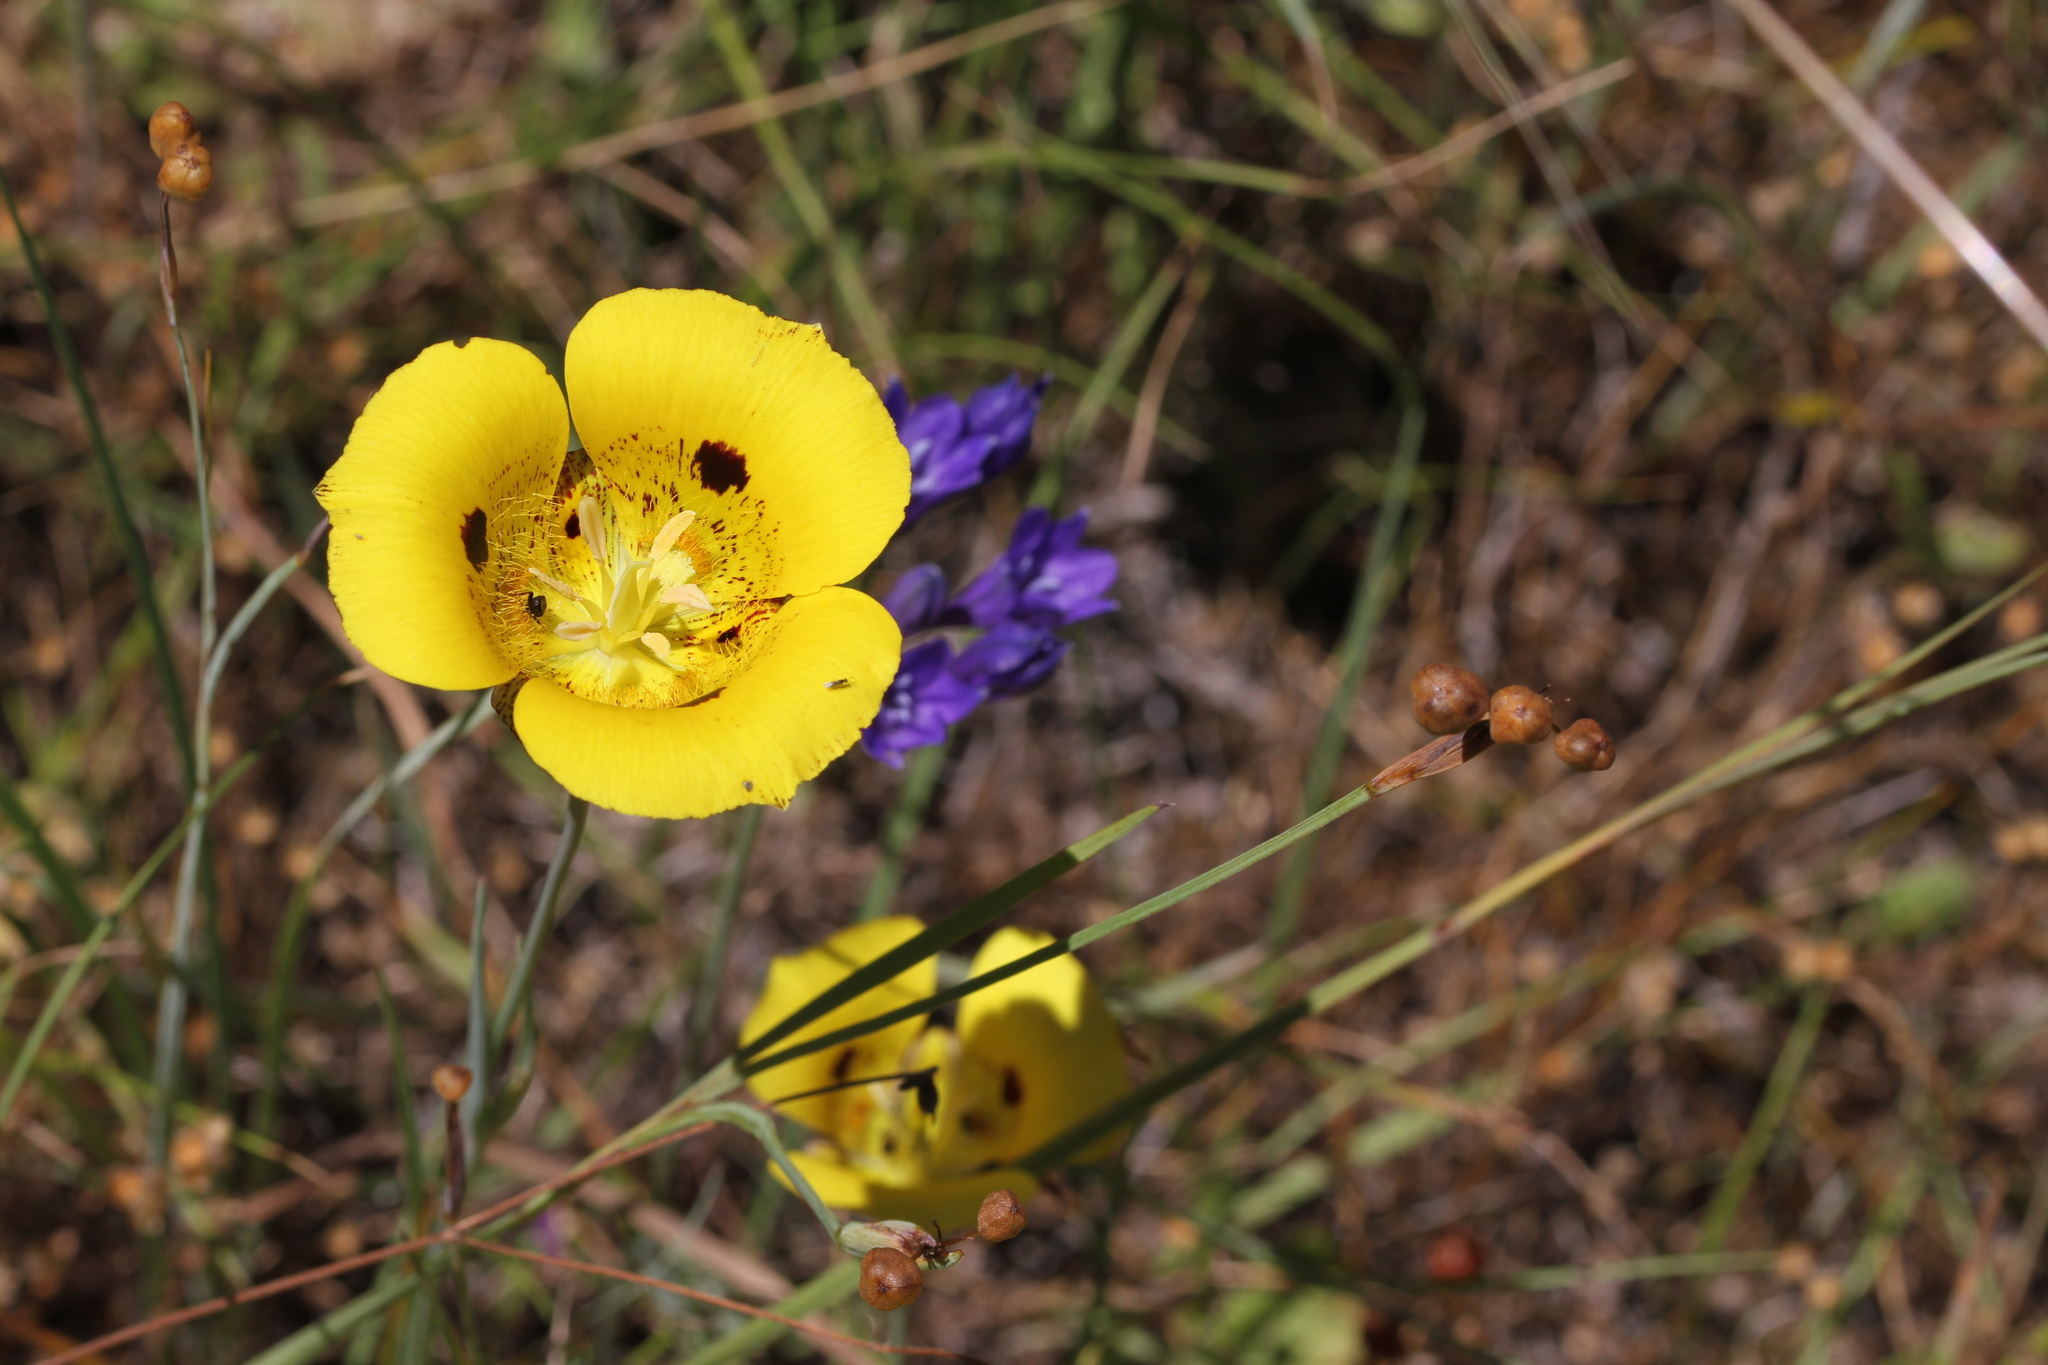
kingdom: Plantae
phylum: Tracheophyta
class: Liliopsida
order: Liliales
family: Liliaceae
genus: Calochortus
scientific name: Calochortus luteus
